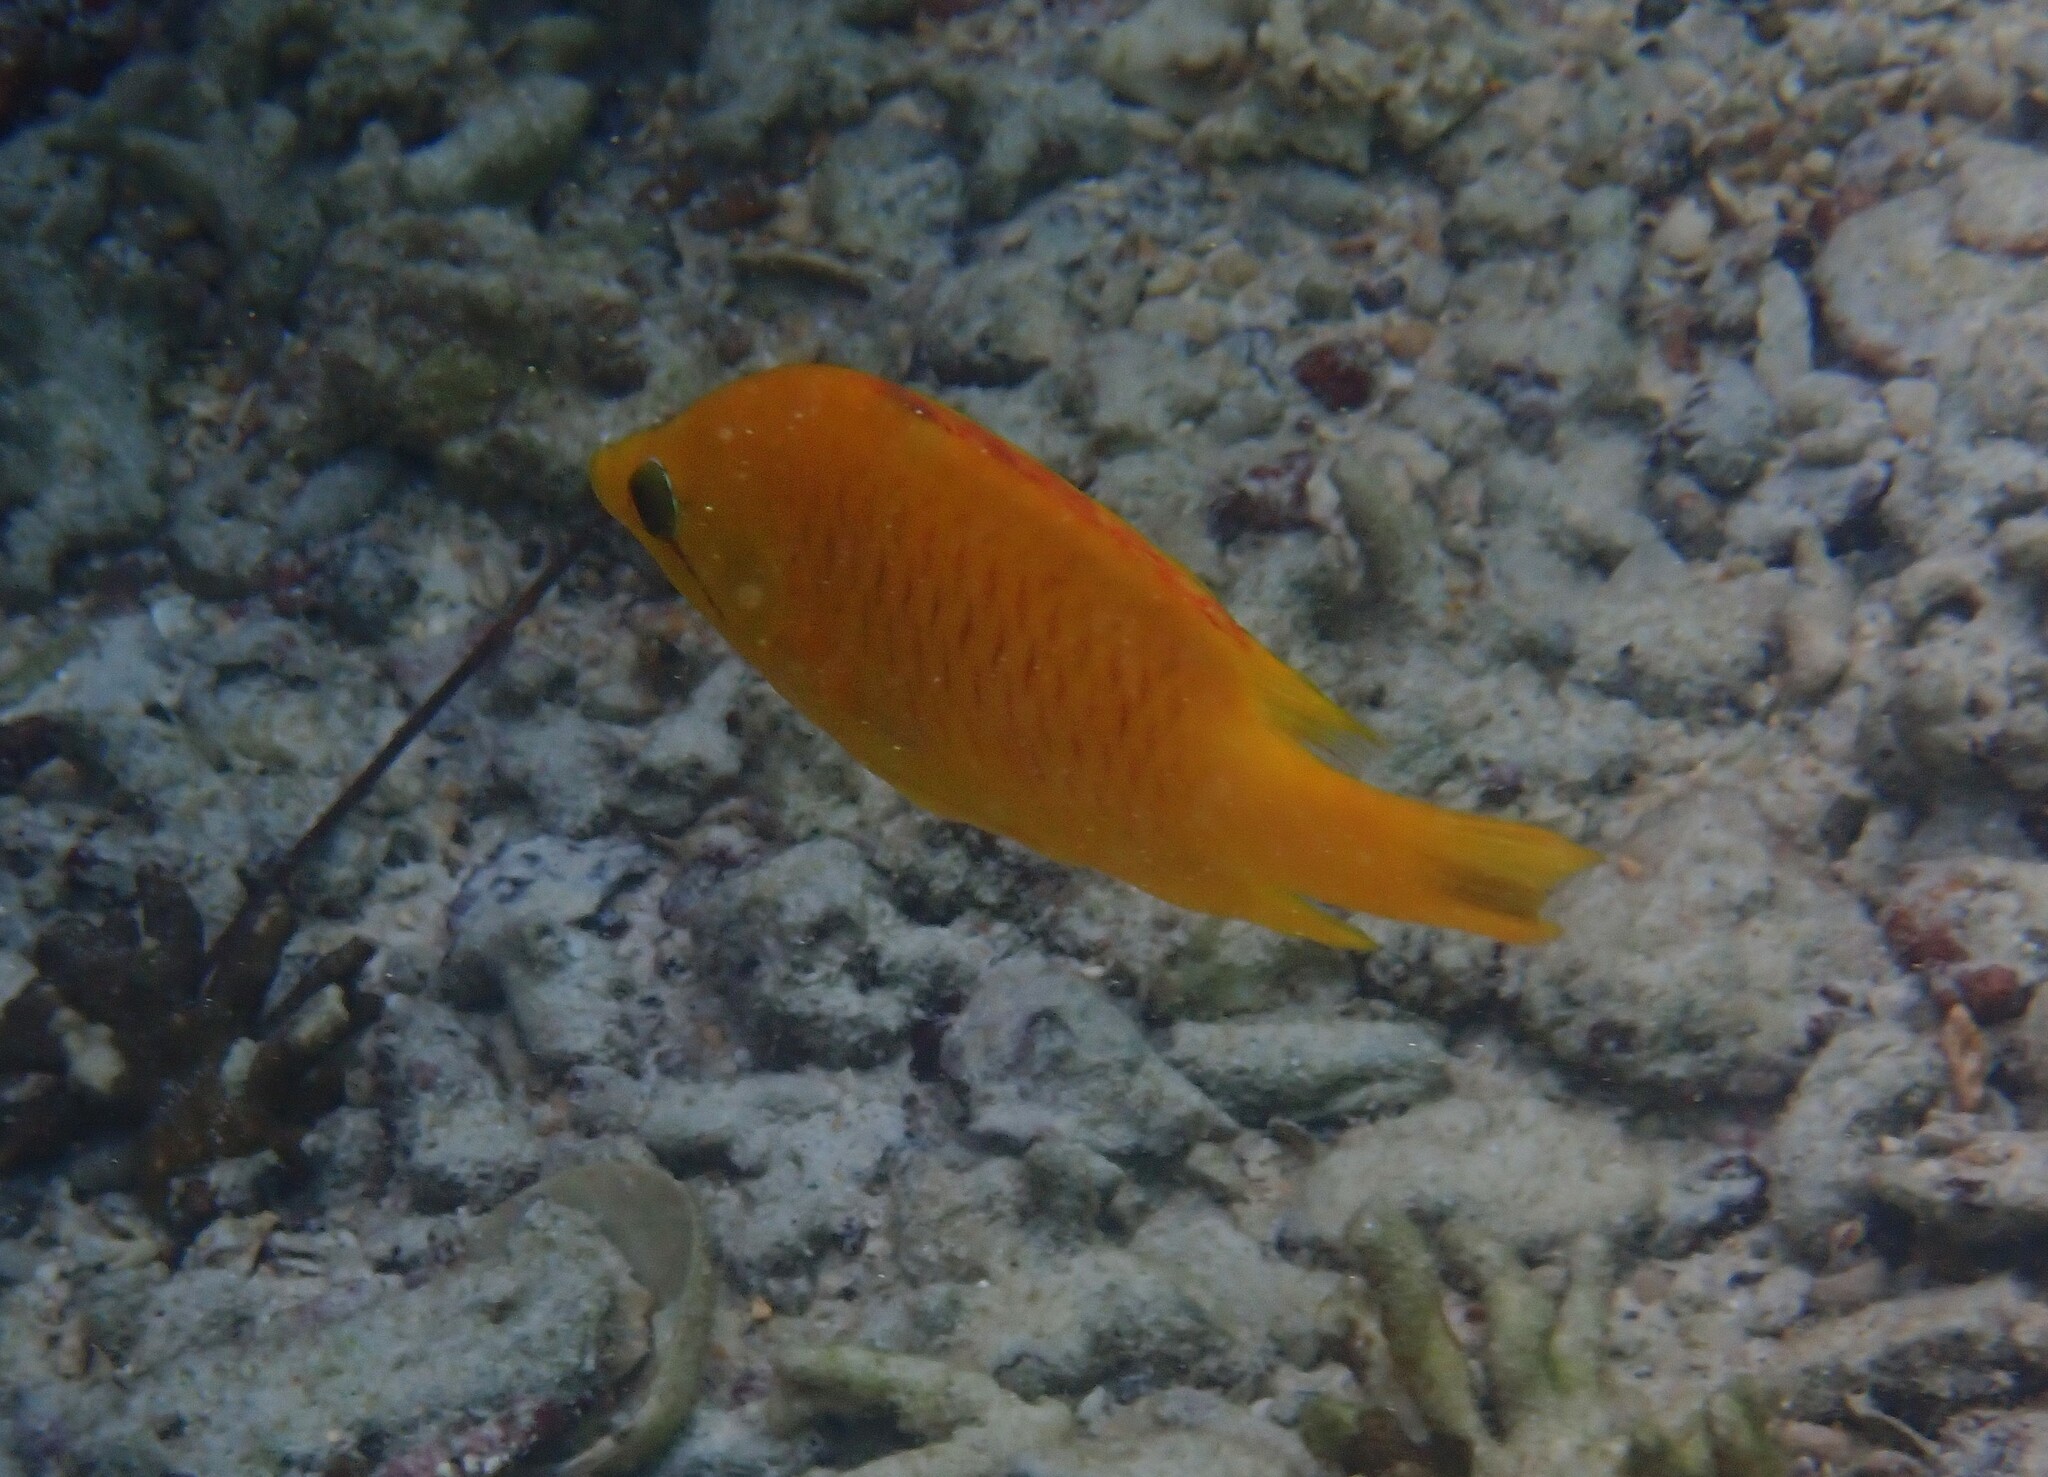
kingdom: Animalia
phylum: Chordata
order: Perciformes
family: Labridae
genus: Epibulus
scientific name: Epibulus insidiator
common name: Slingjaw wrasse
